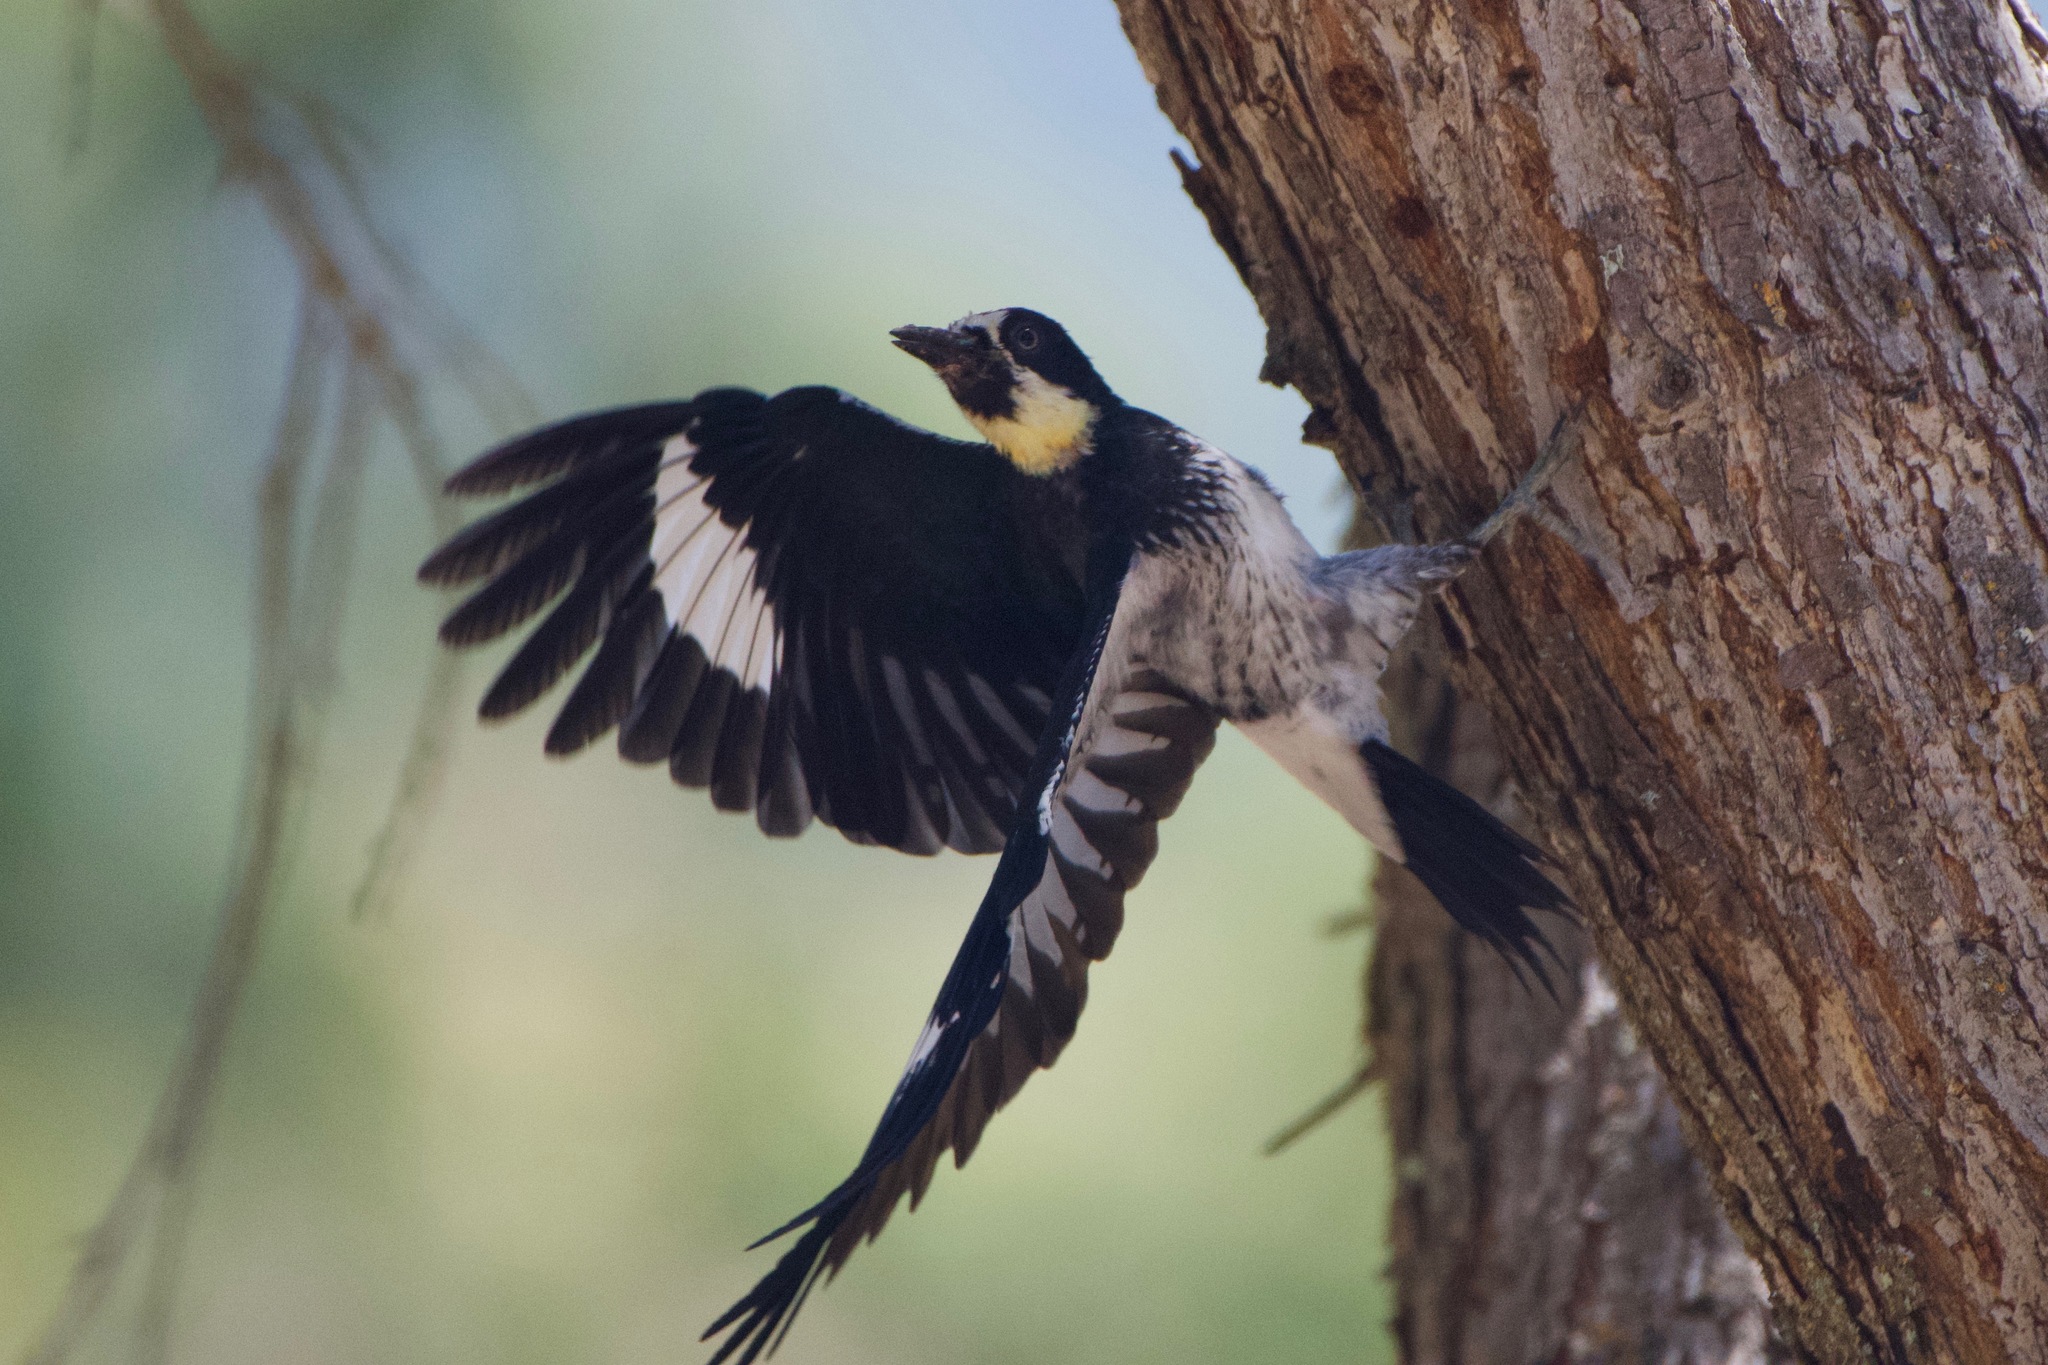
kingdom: Animalia
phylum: Chordata
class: Aves
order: Piciformes
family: Picidae
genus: Melanerpes
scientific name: Melanerpes formicivorus
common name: Acorn woodpecker
